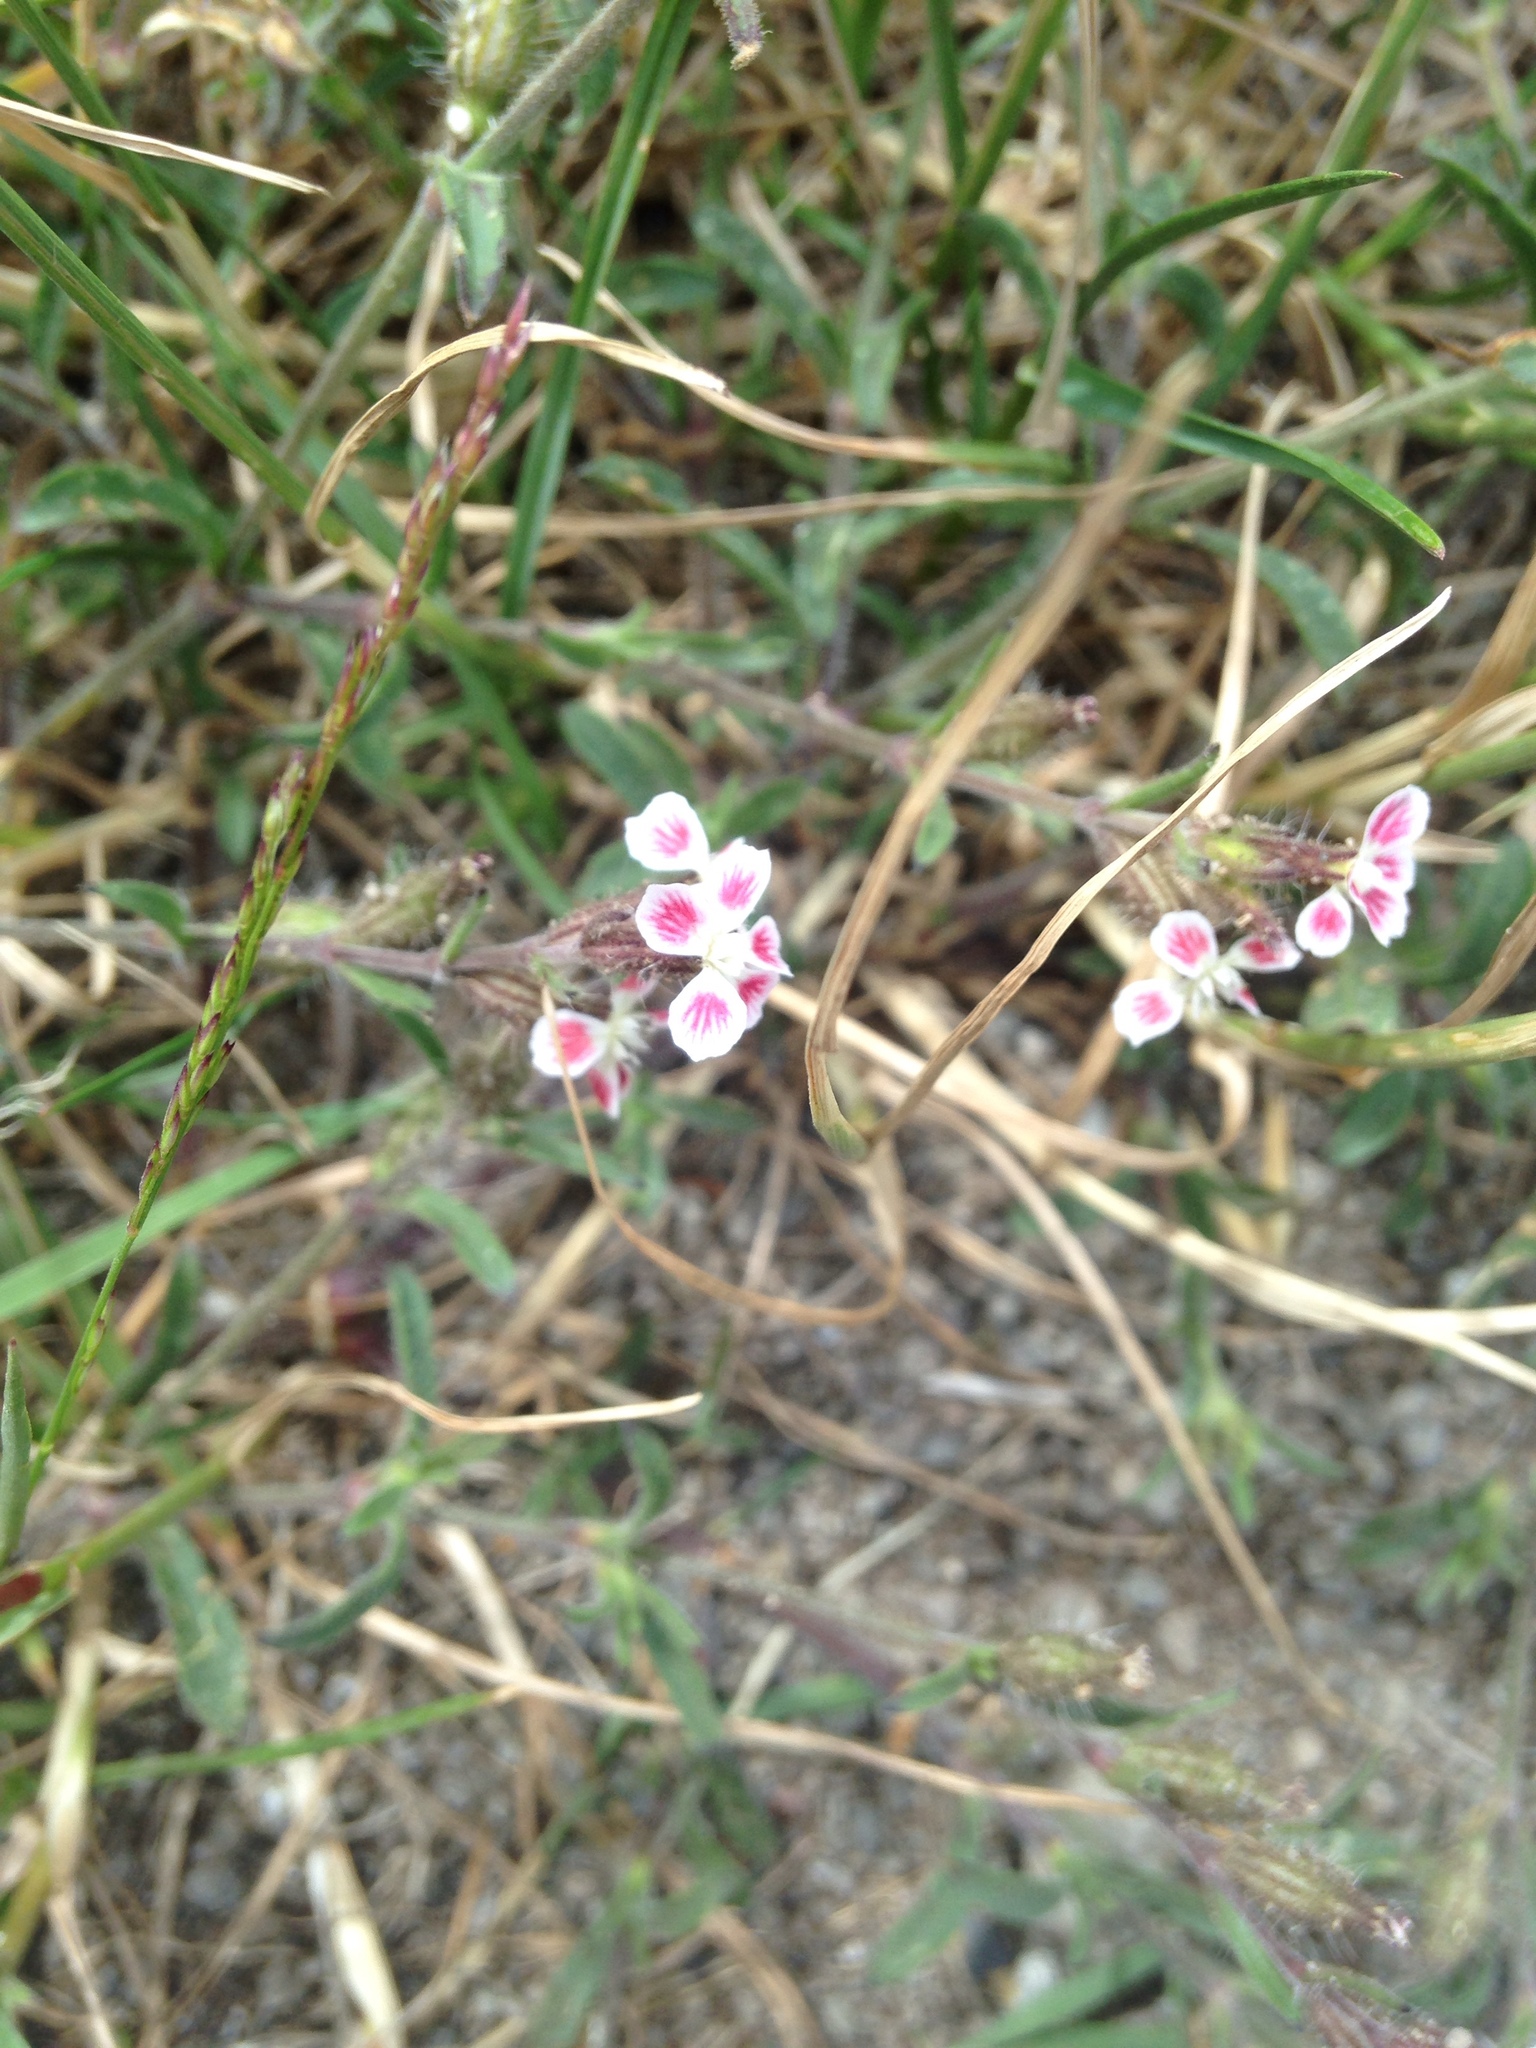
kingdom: Plantae
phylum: Tracheophyta
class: Magnoliopsida
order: Caryophyllales
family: Caryophyllaceae
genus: Silene
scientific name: Silene gallica
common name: Small-flowered catchfly
